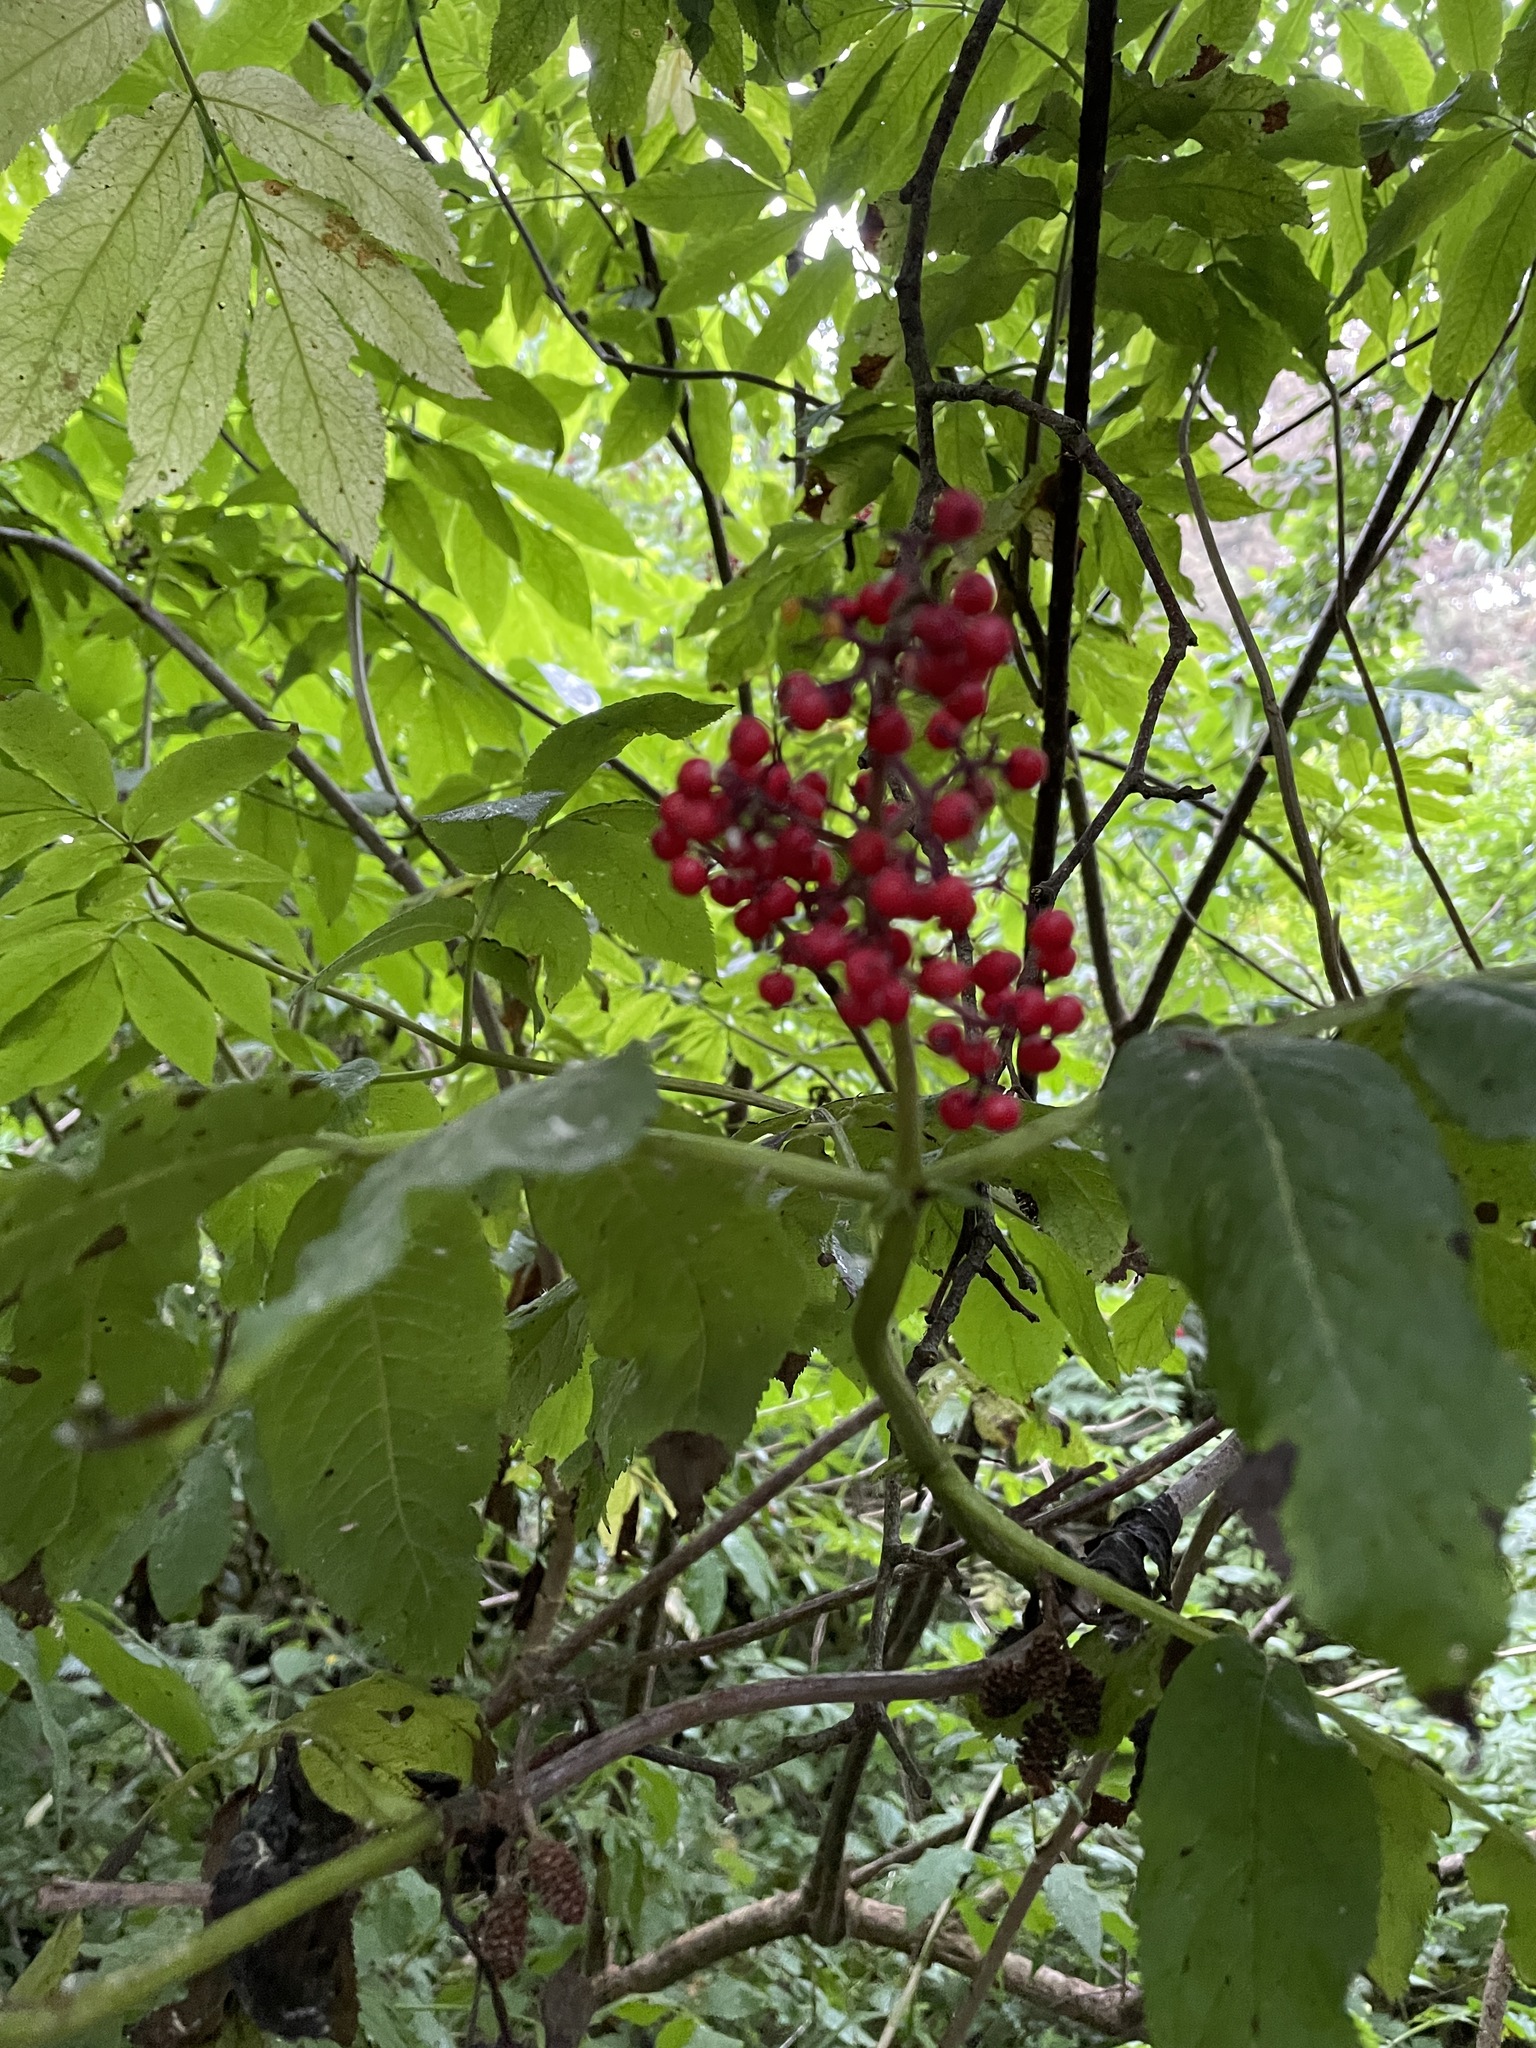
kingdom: Plantae
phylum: Tracheophyta
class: Magnoliopsida
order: Dipsacales
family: Viburnaceae
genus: Sambucus
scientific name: Sambucus racemosa
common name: Red-berried elder
